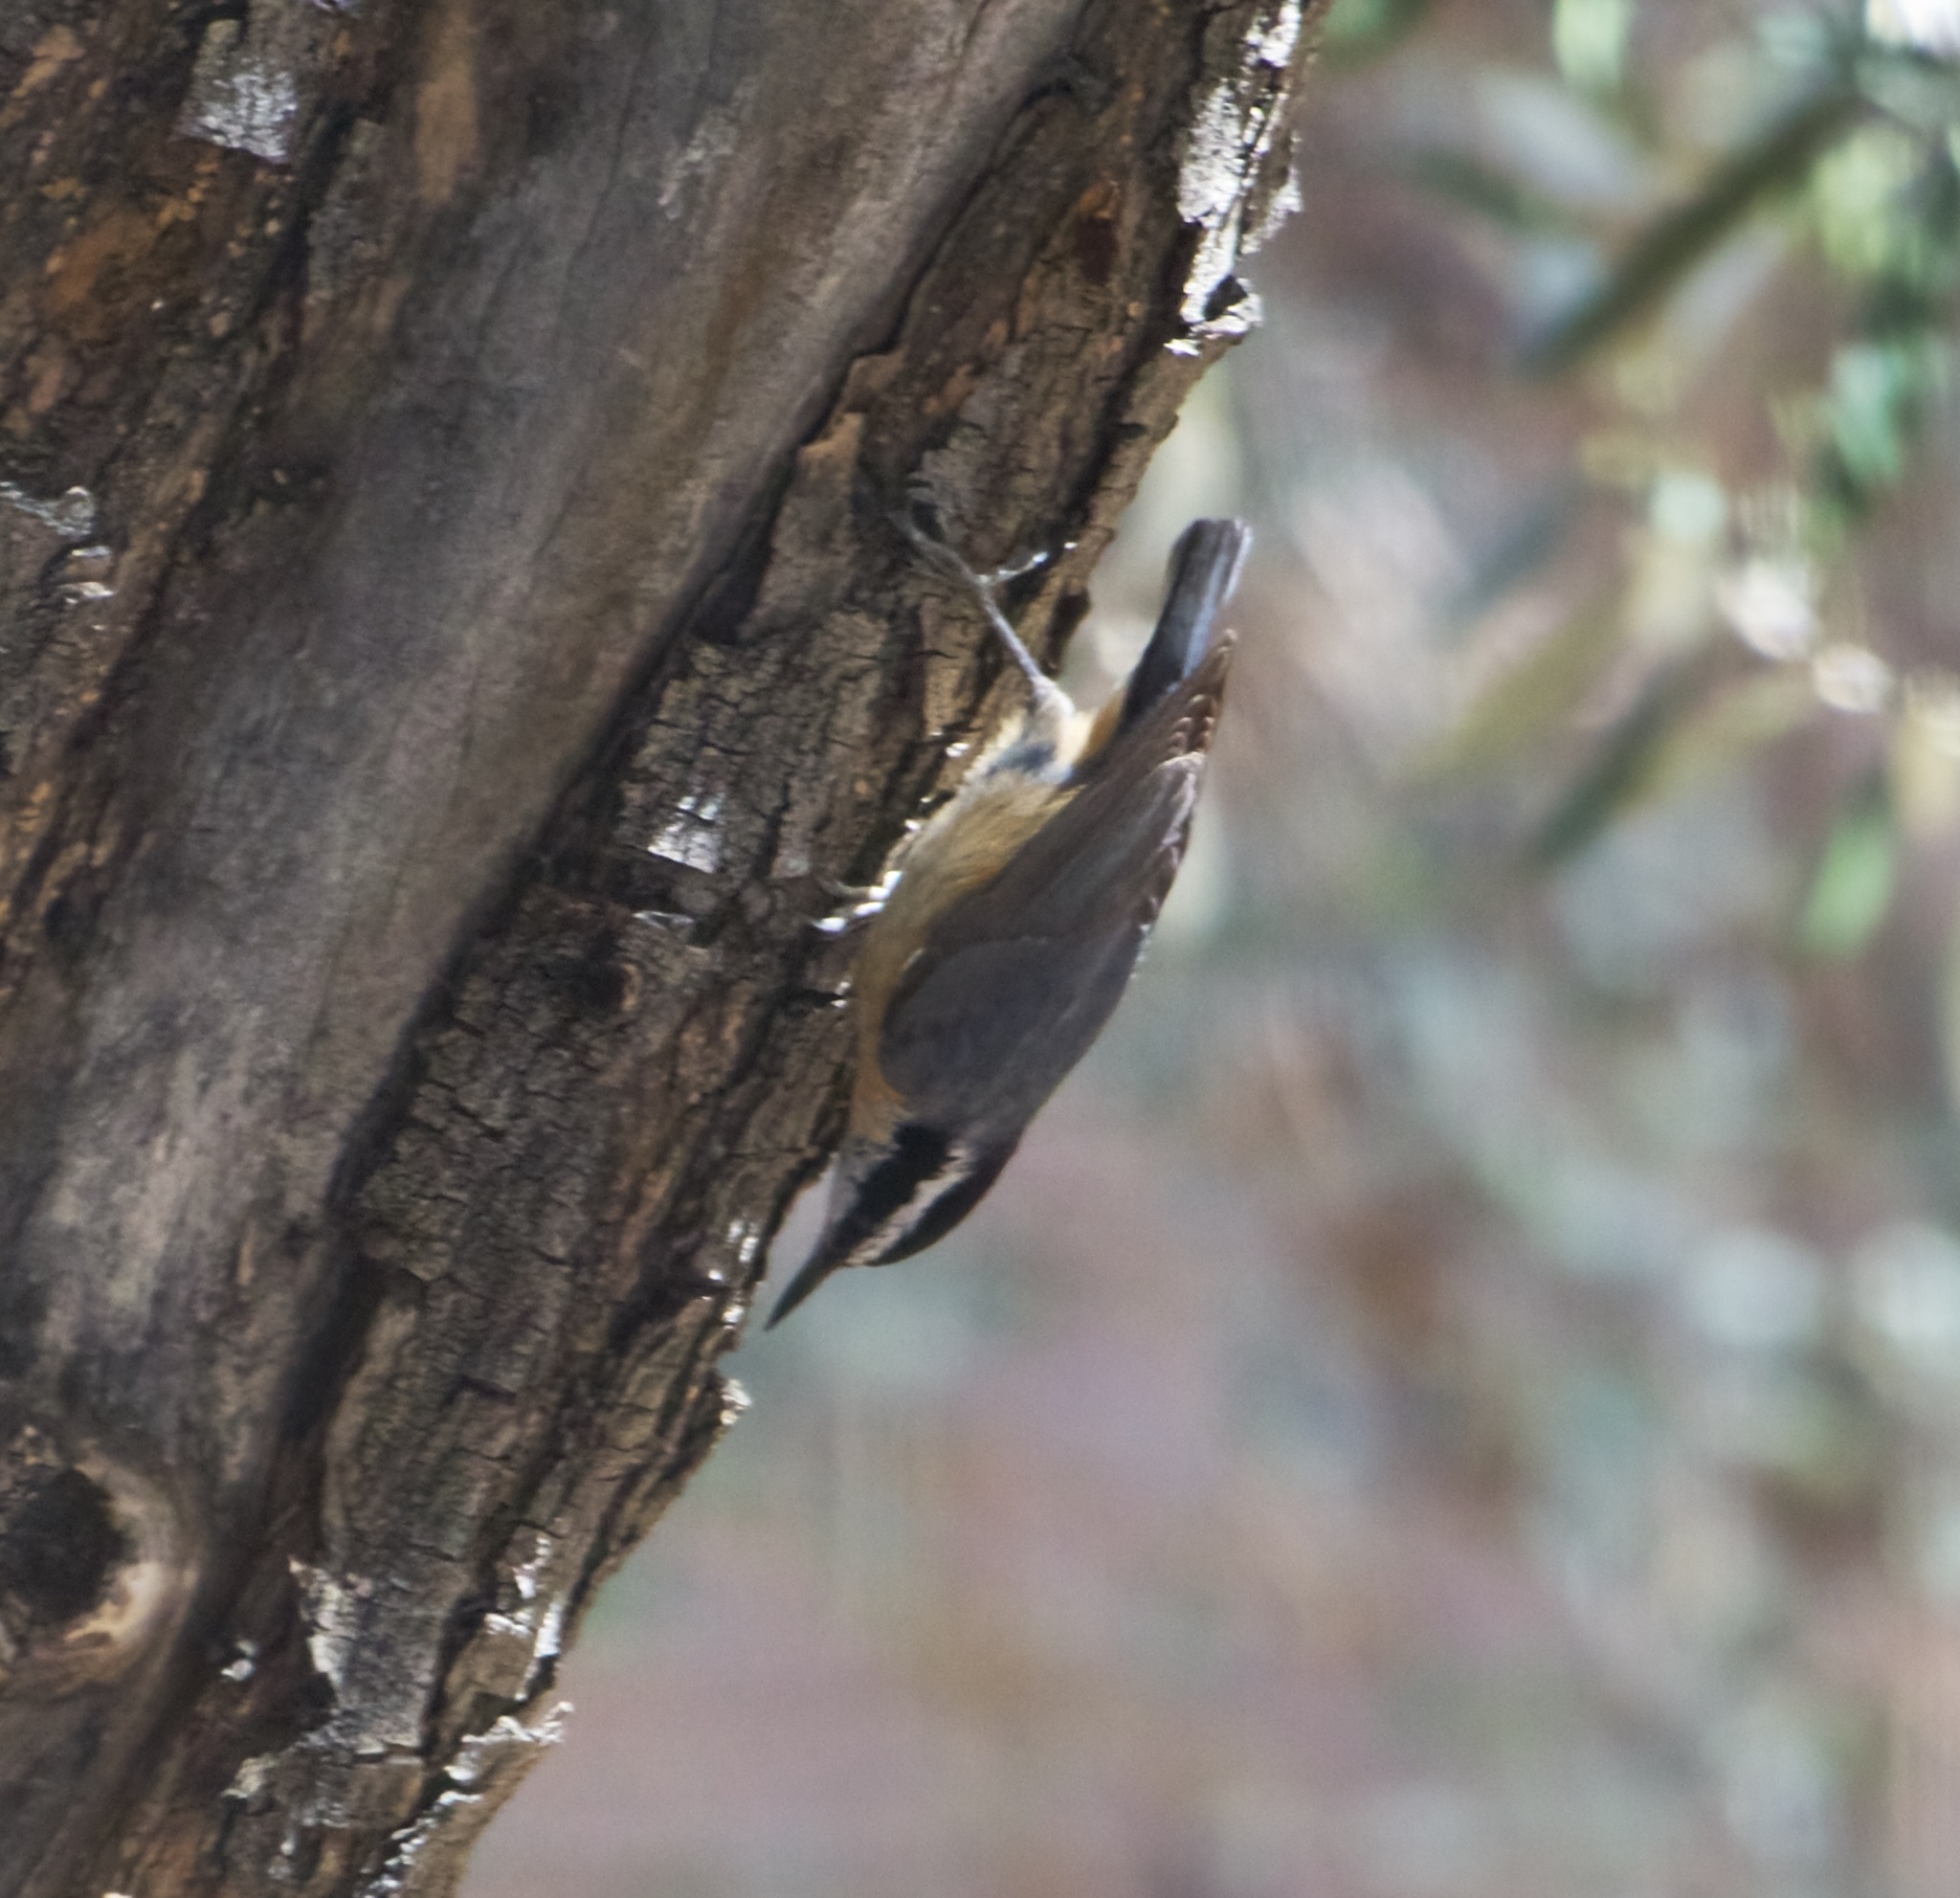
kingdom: Animalia
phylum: Chordata
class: Aves
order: Passeriformes
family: Sittidae
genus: Sitta
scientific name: Sitta canadensis
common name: Red-breasted nuthatch
